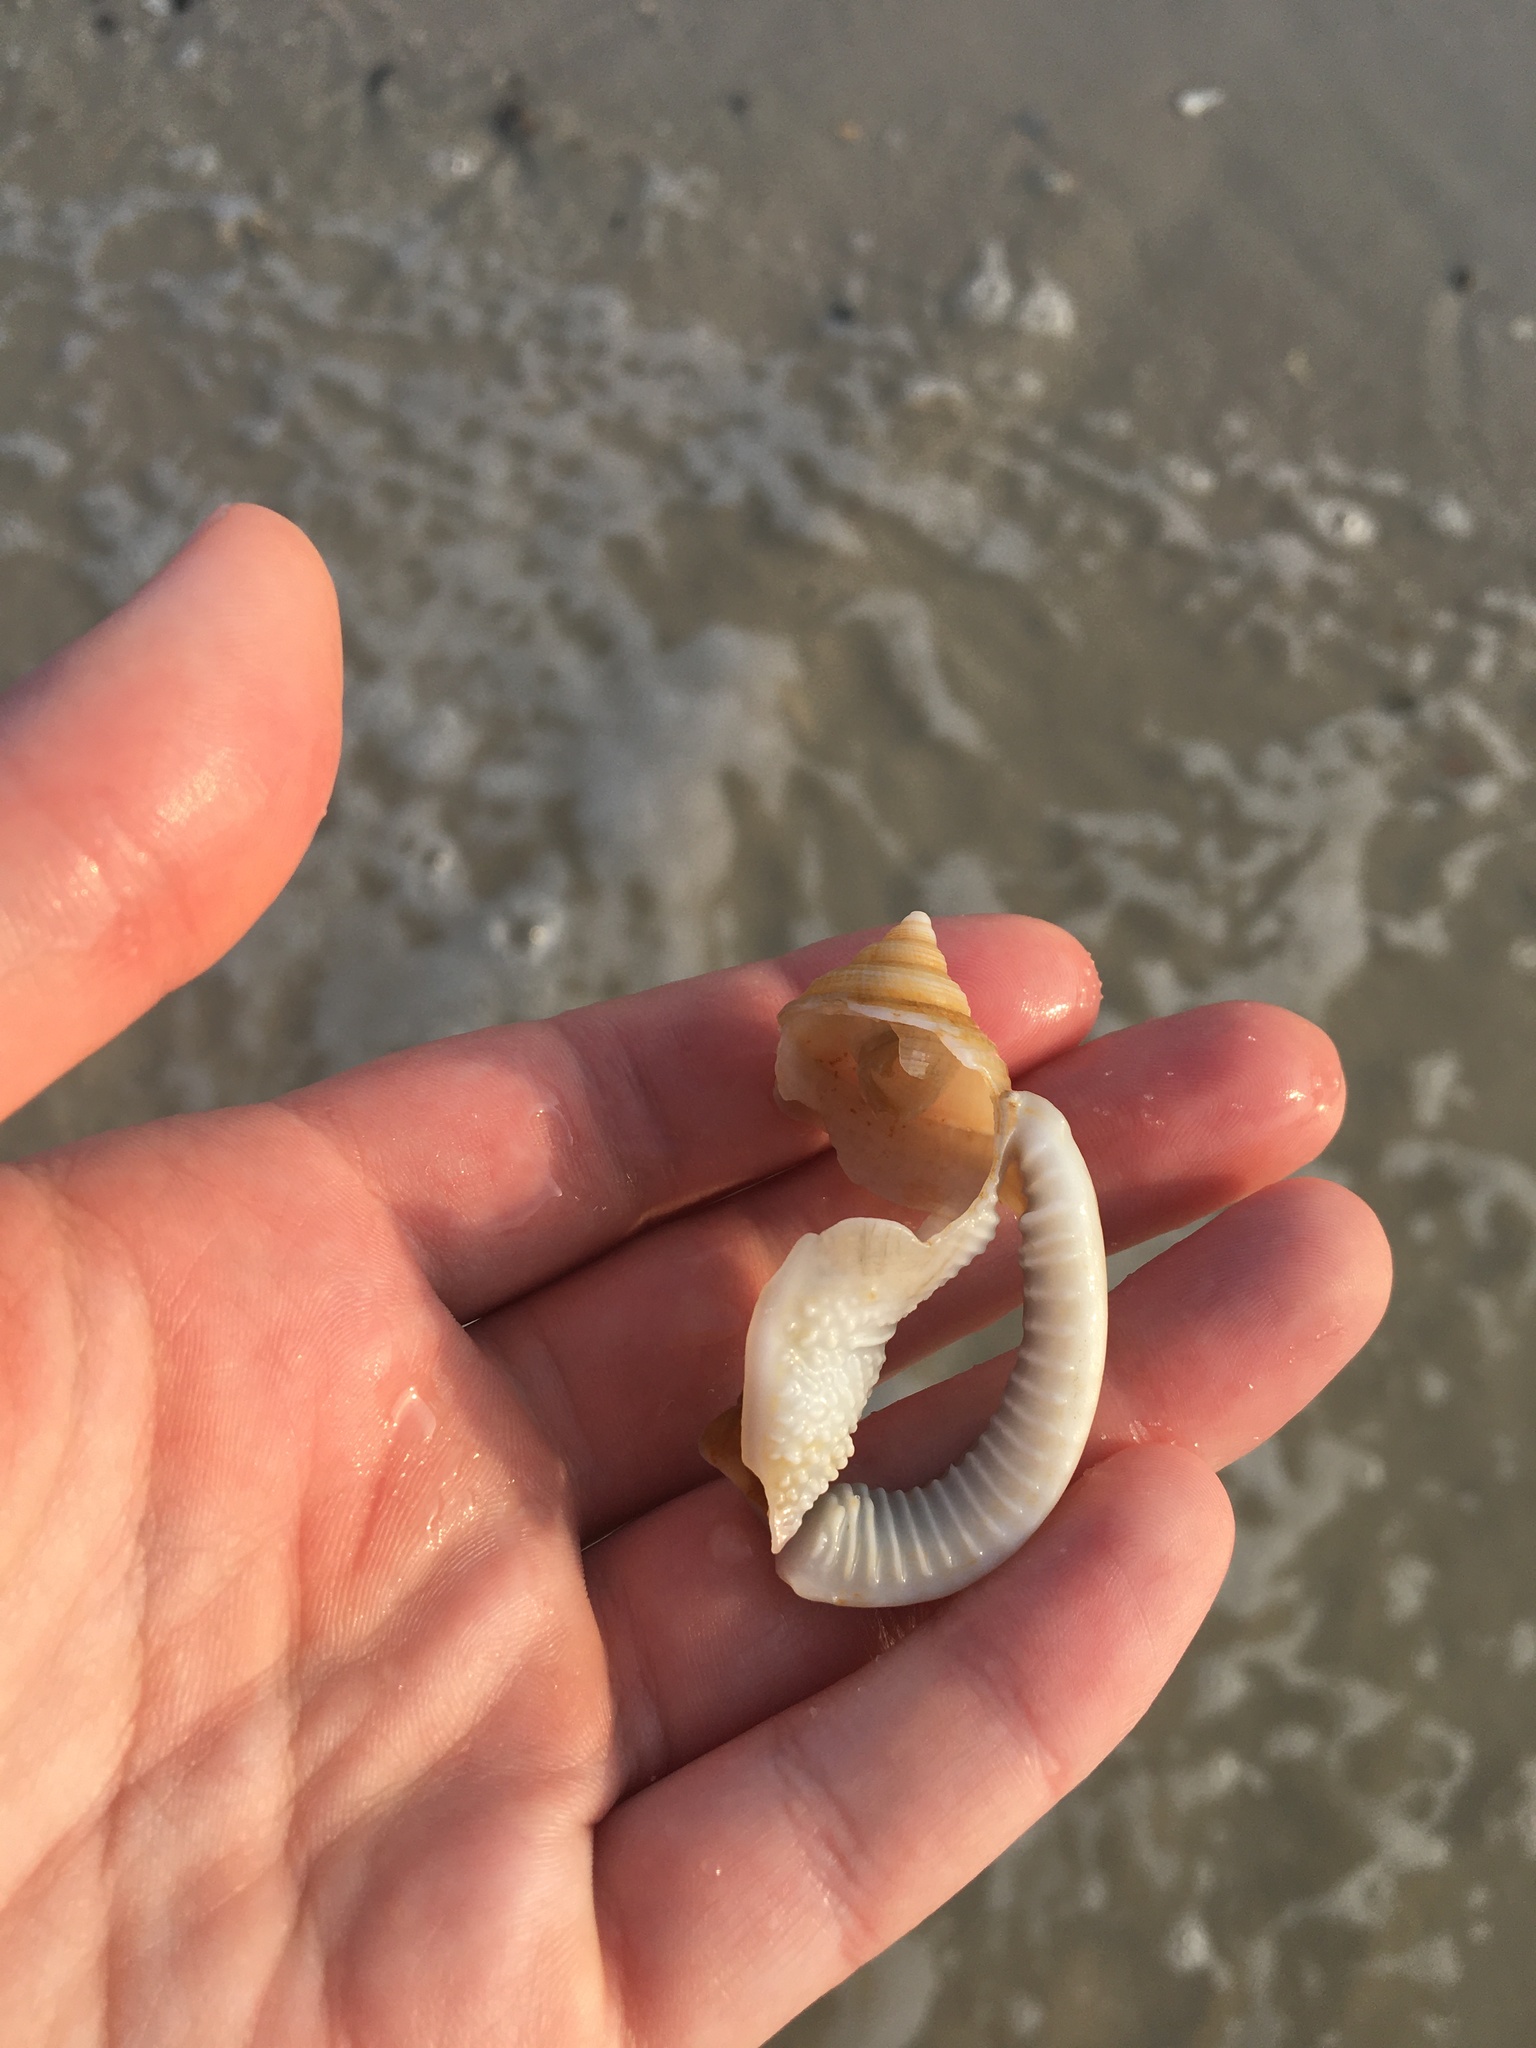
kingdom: Animalia
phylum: Mollusca
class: Gastropoda
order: Littorinimorpha
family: Cassidae
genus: Semicassis
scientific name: Semicassis granulata
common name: Scotch bonnet
